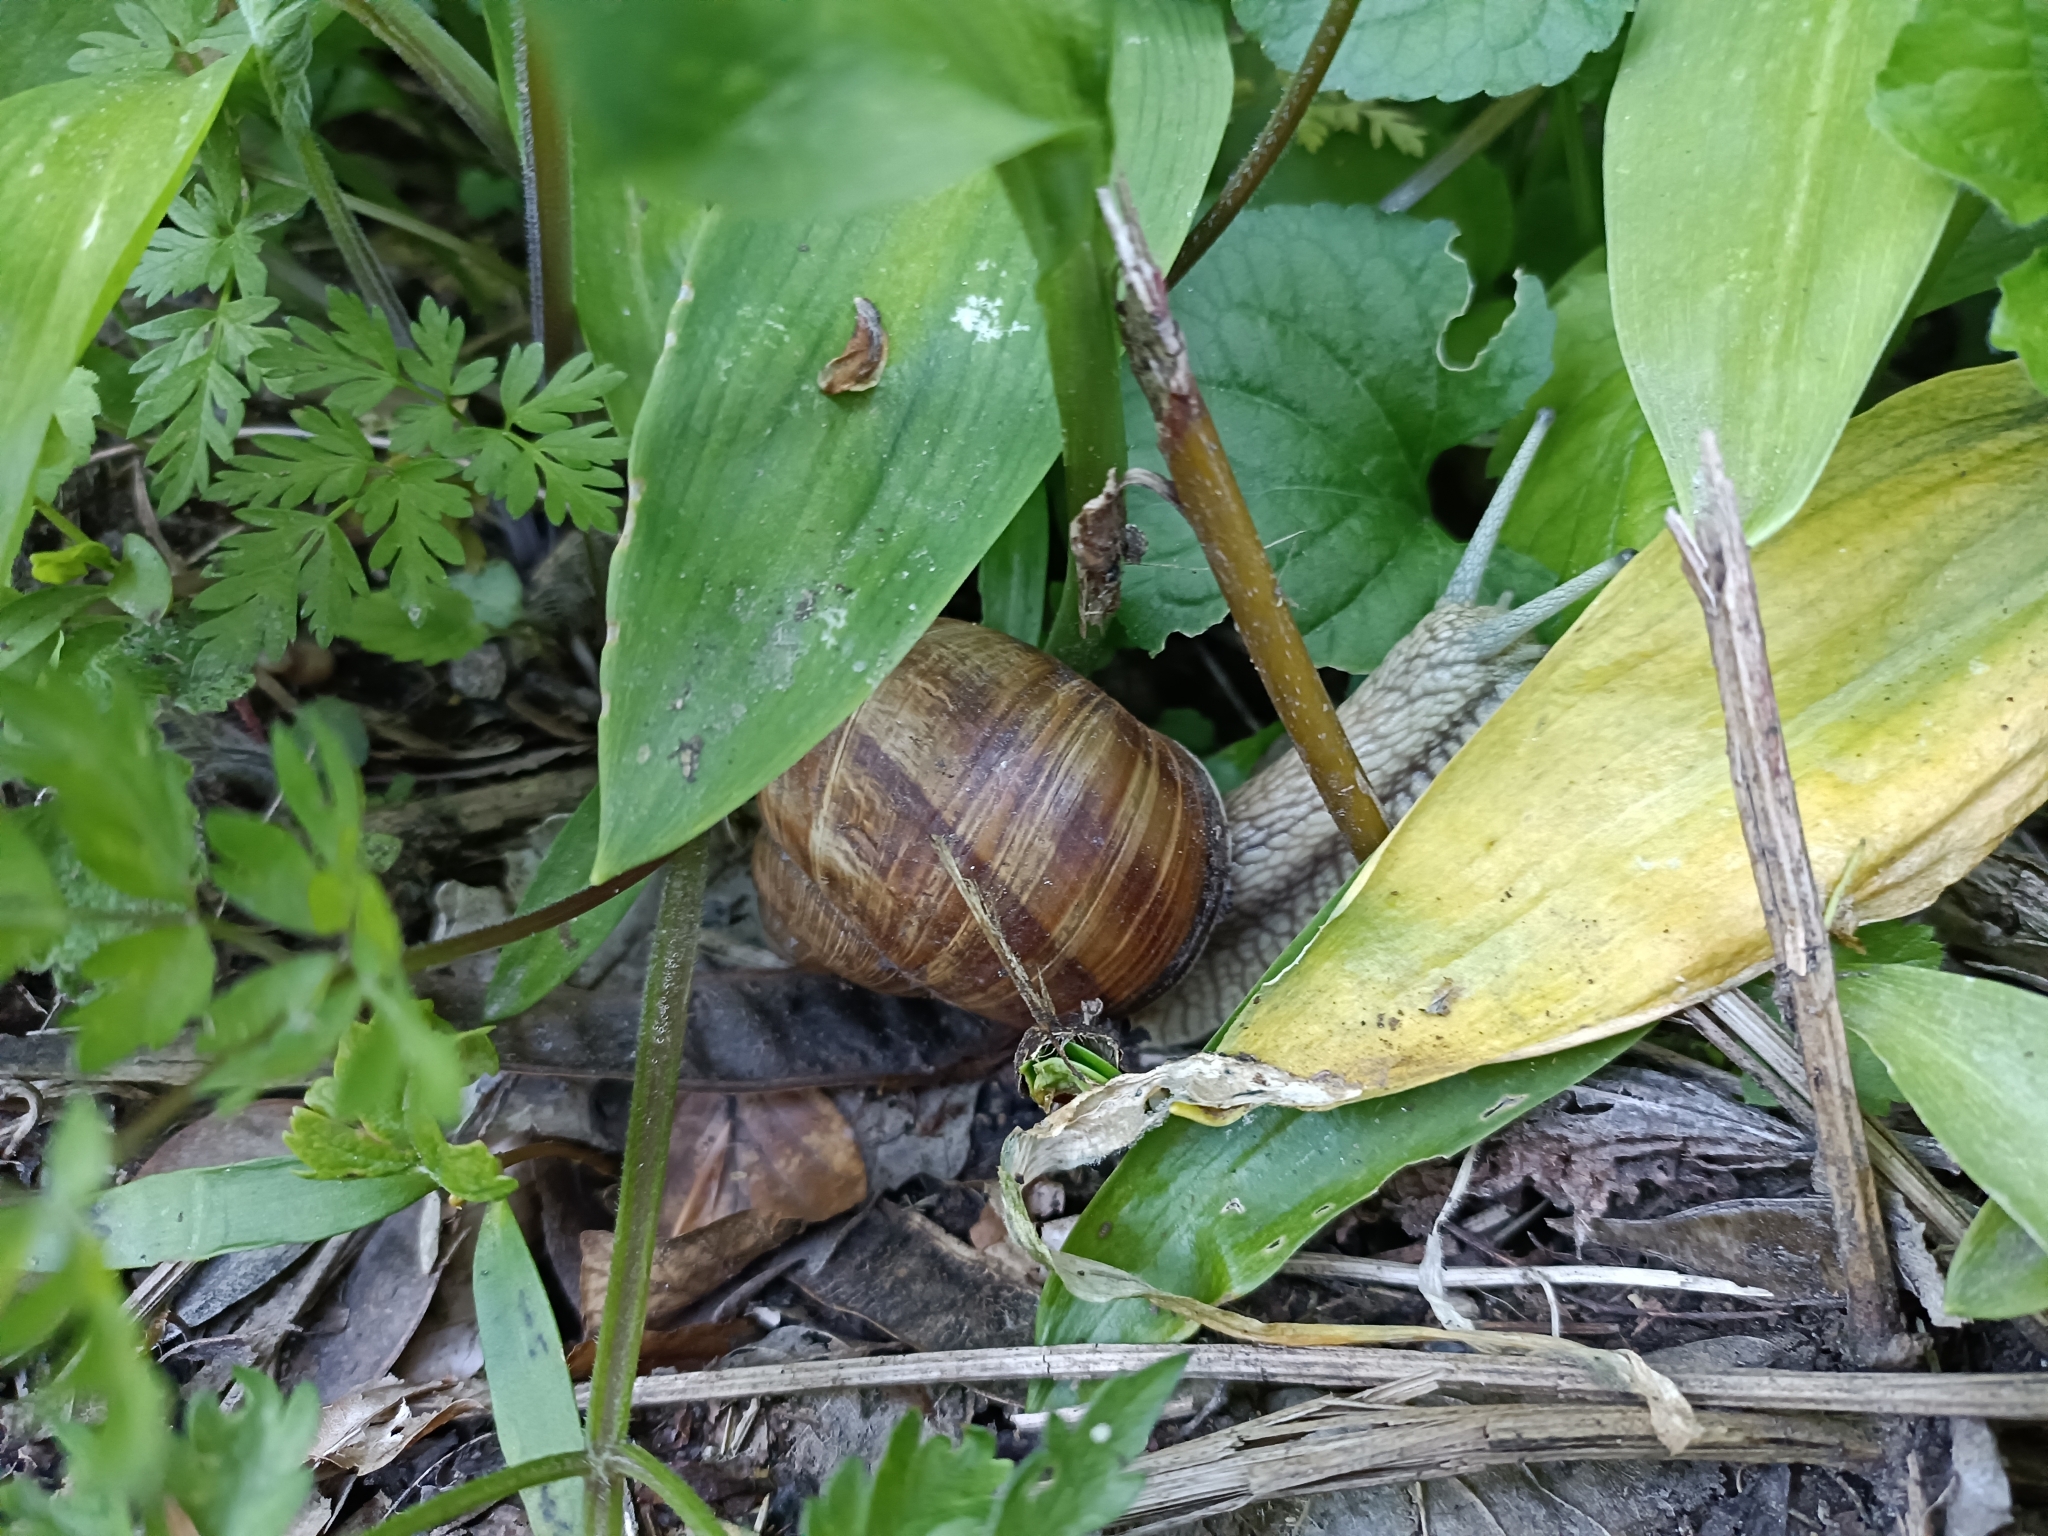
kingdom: Animalia
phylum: Mollusca
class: Gastropoda
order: Stylommatophora
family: Helicidae
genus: Helix
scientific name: Helix pomatia
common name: Roman snail
